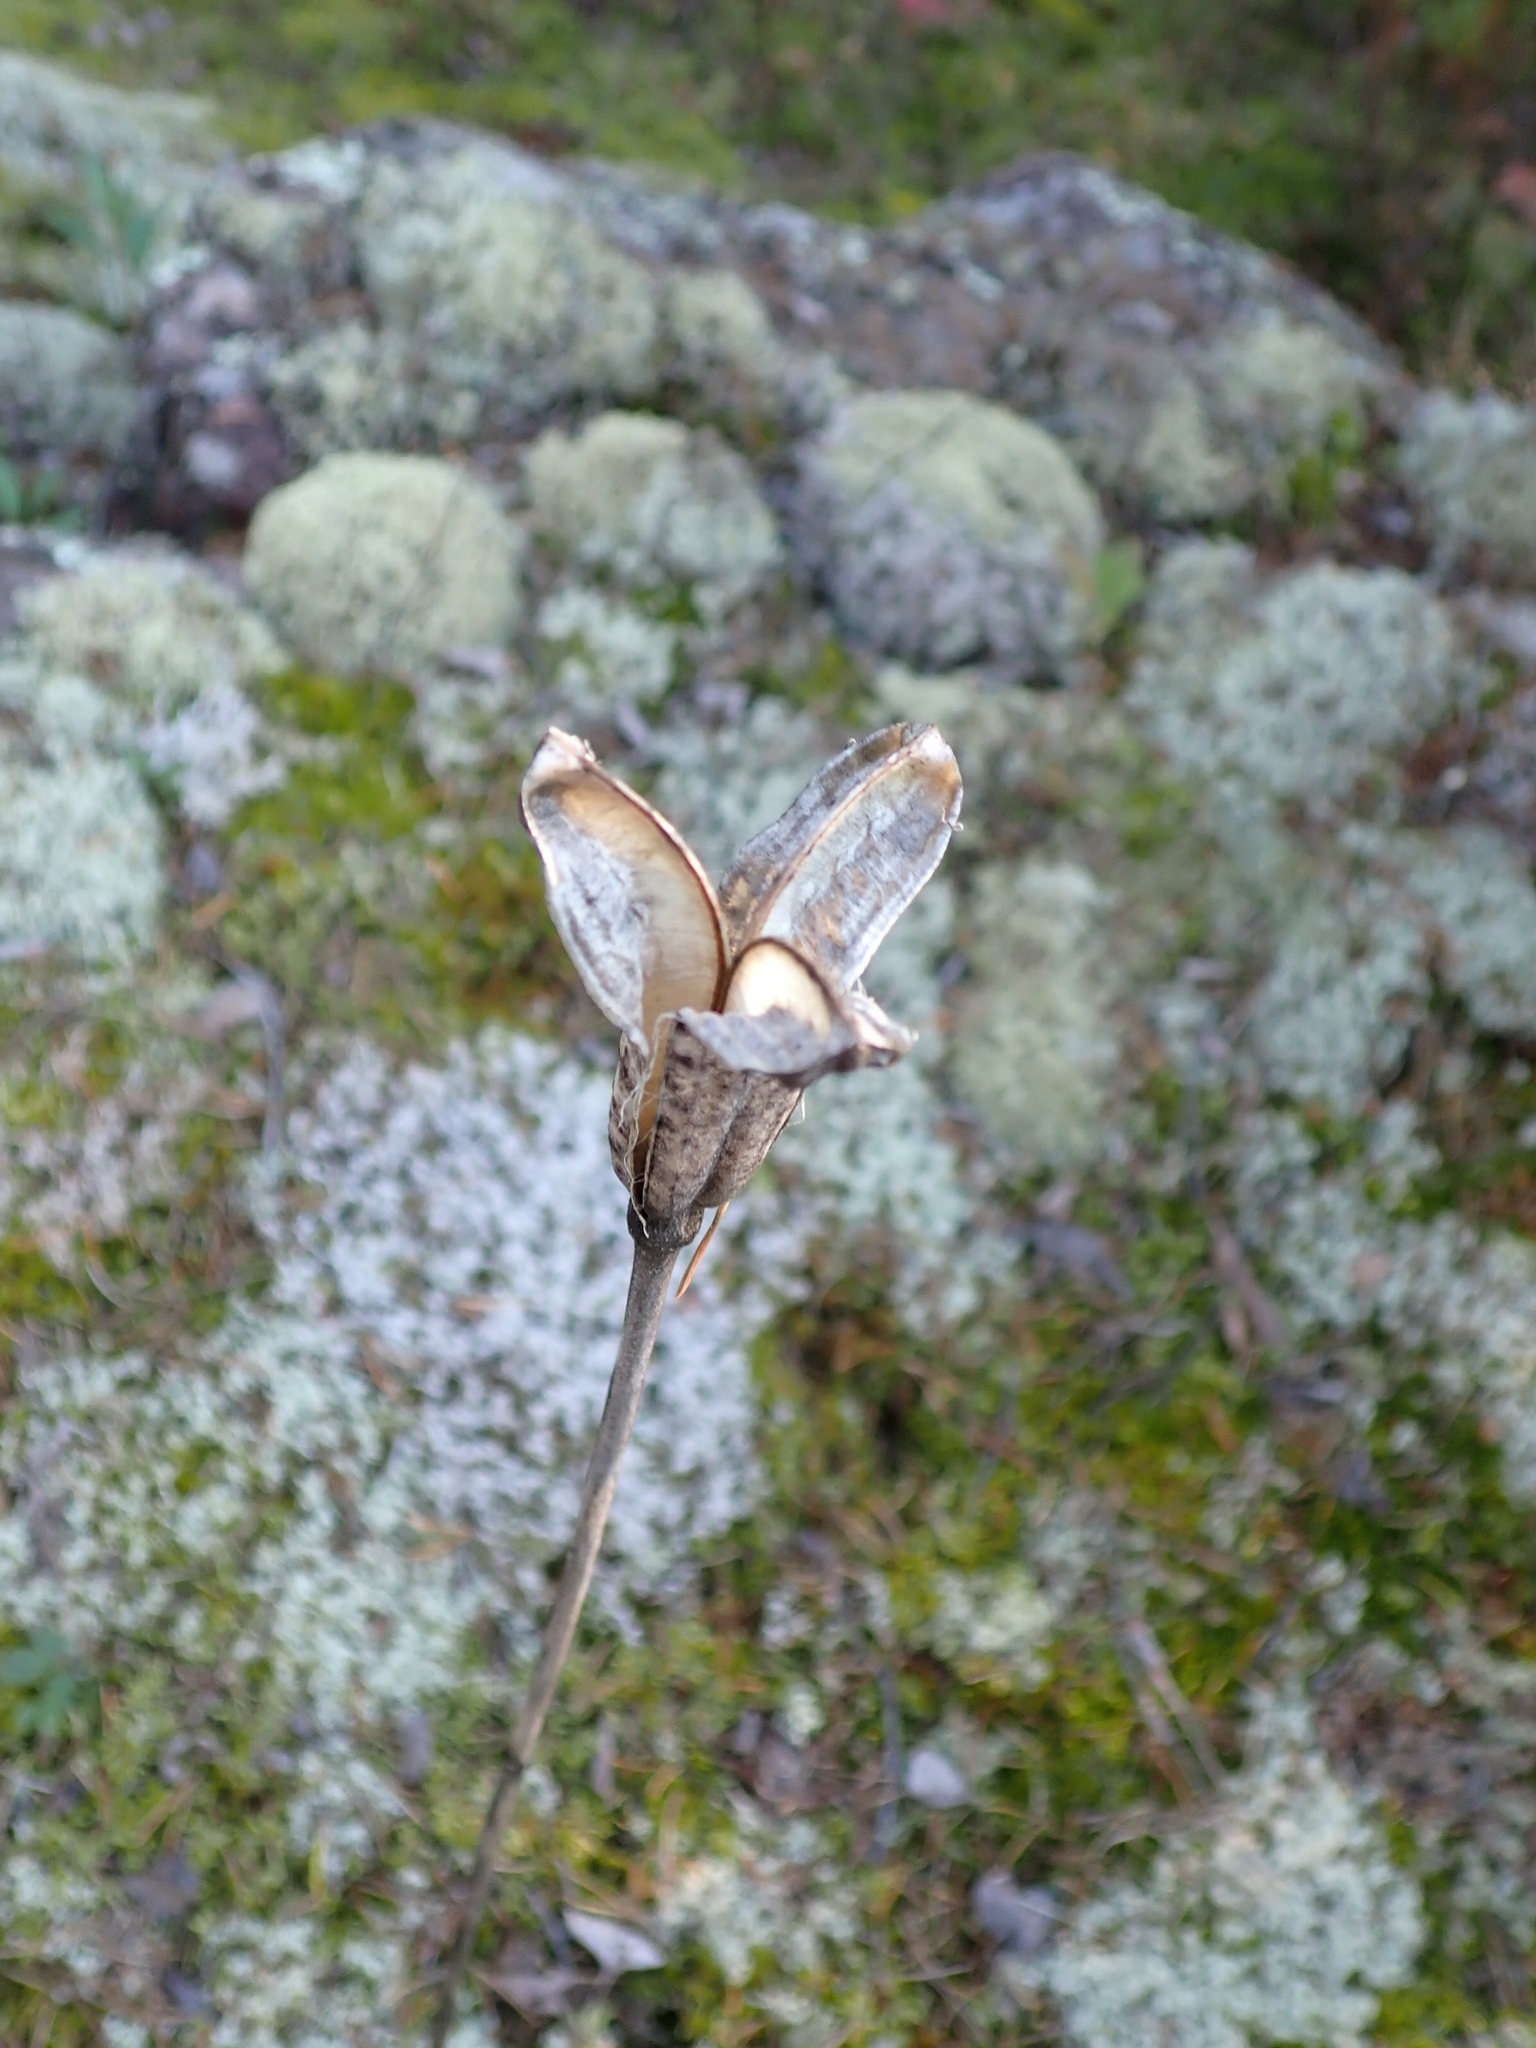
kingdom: Plantae
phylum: Tracheophyta
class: Liliopsida
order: Liliales
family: Liliaceae
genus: Lilium
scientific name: Lilium philadelphicum
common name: Red lily
